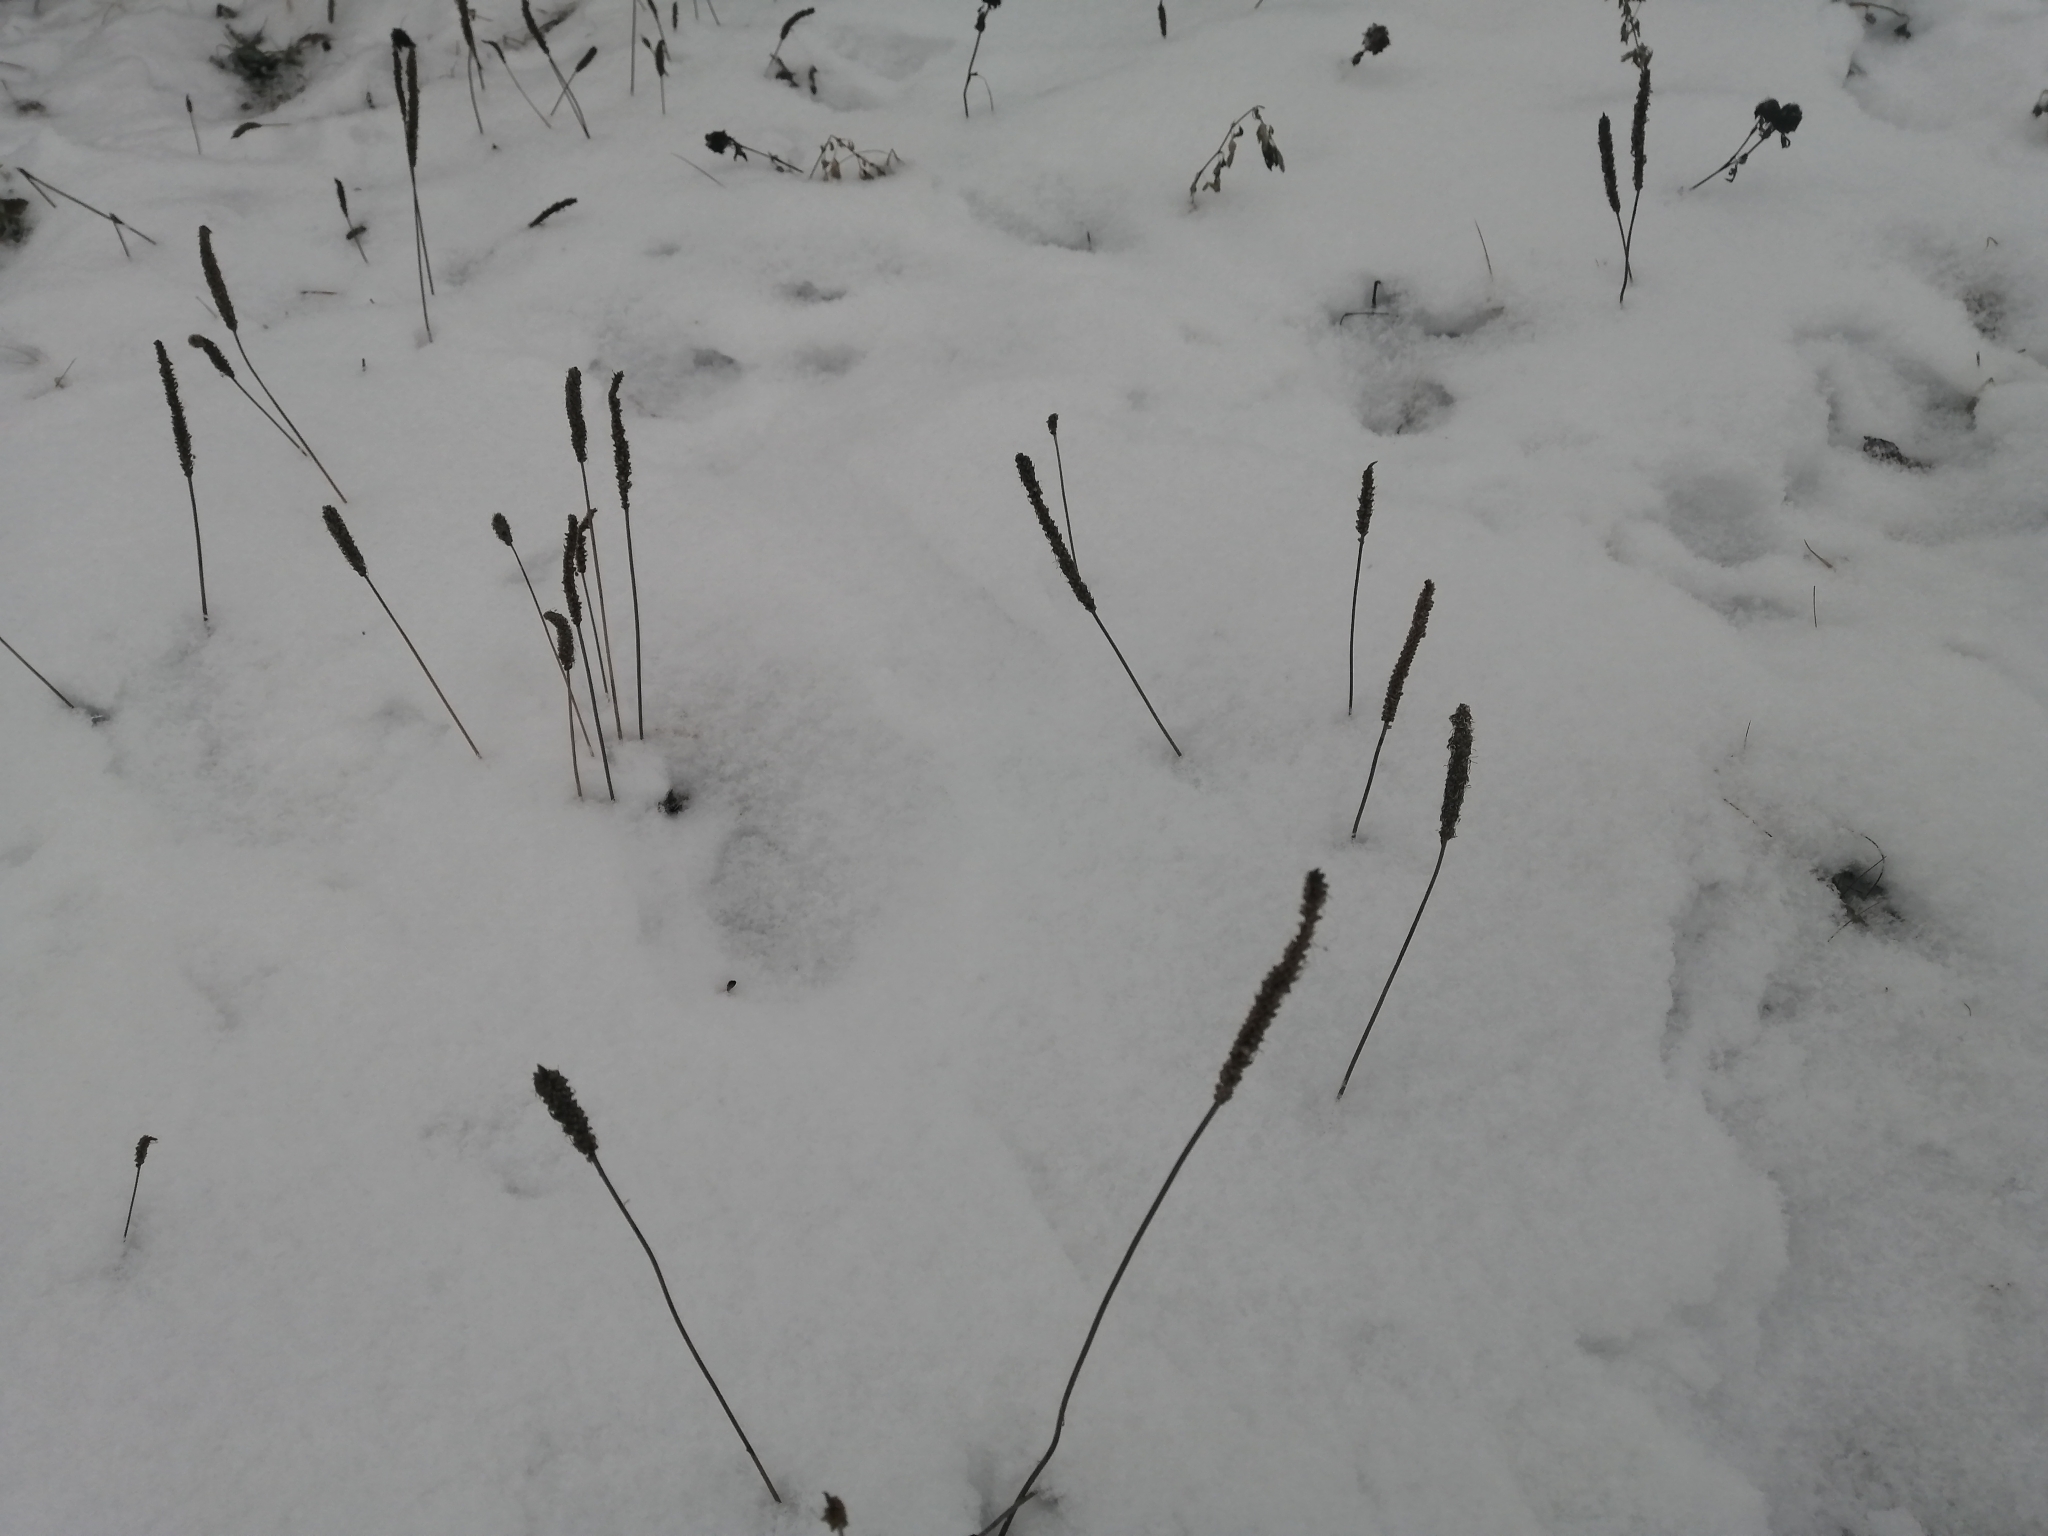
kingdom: Plantae
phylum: Tracheophyta
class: Magnoliopsida
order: Lamiales
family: Plantaginaceae
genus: Plantago
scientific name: Plantago media
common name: Hoary plantain
